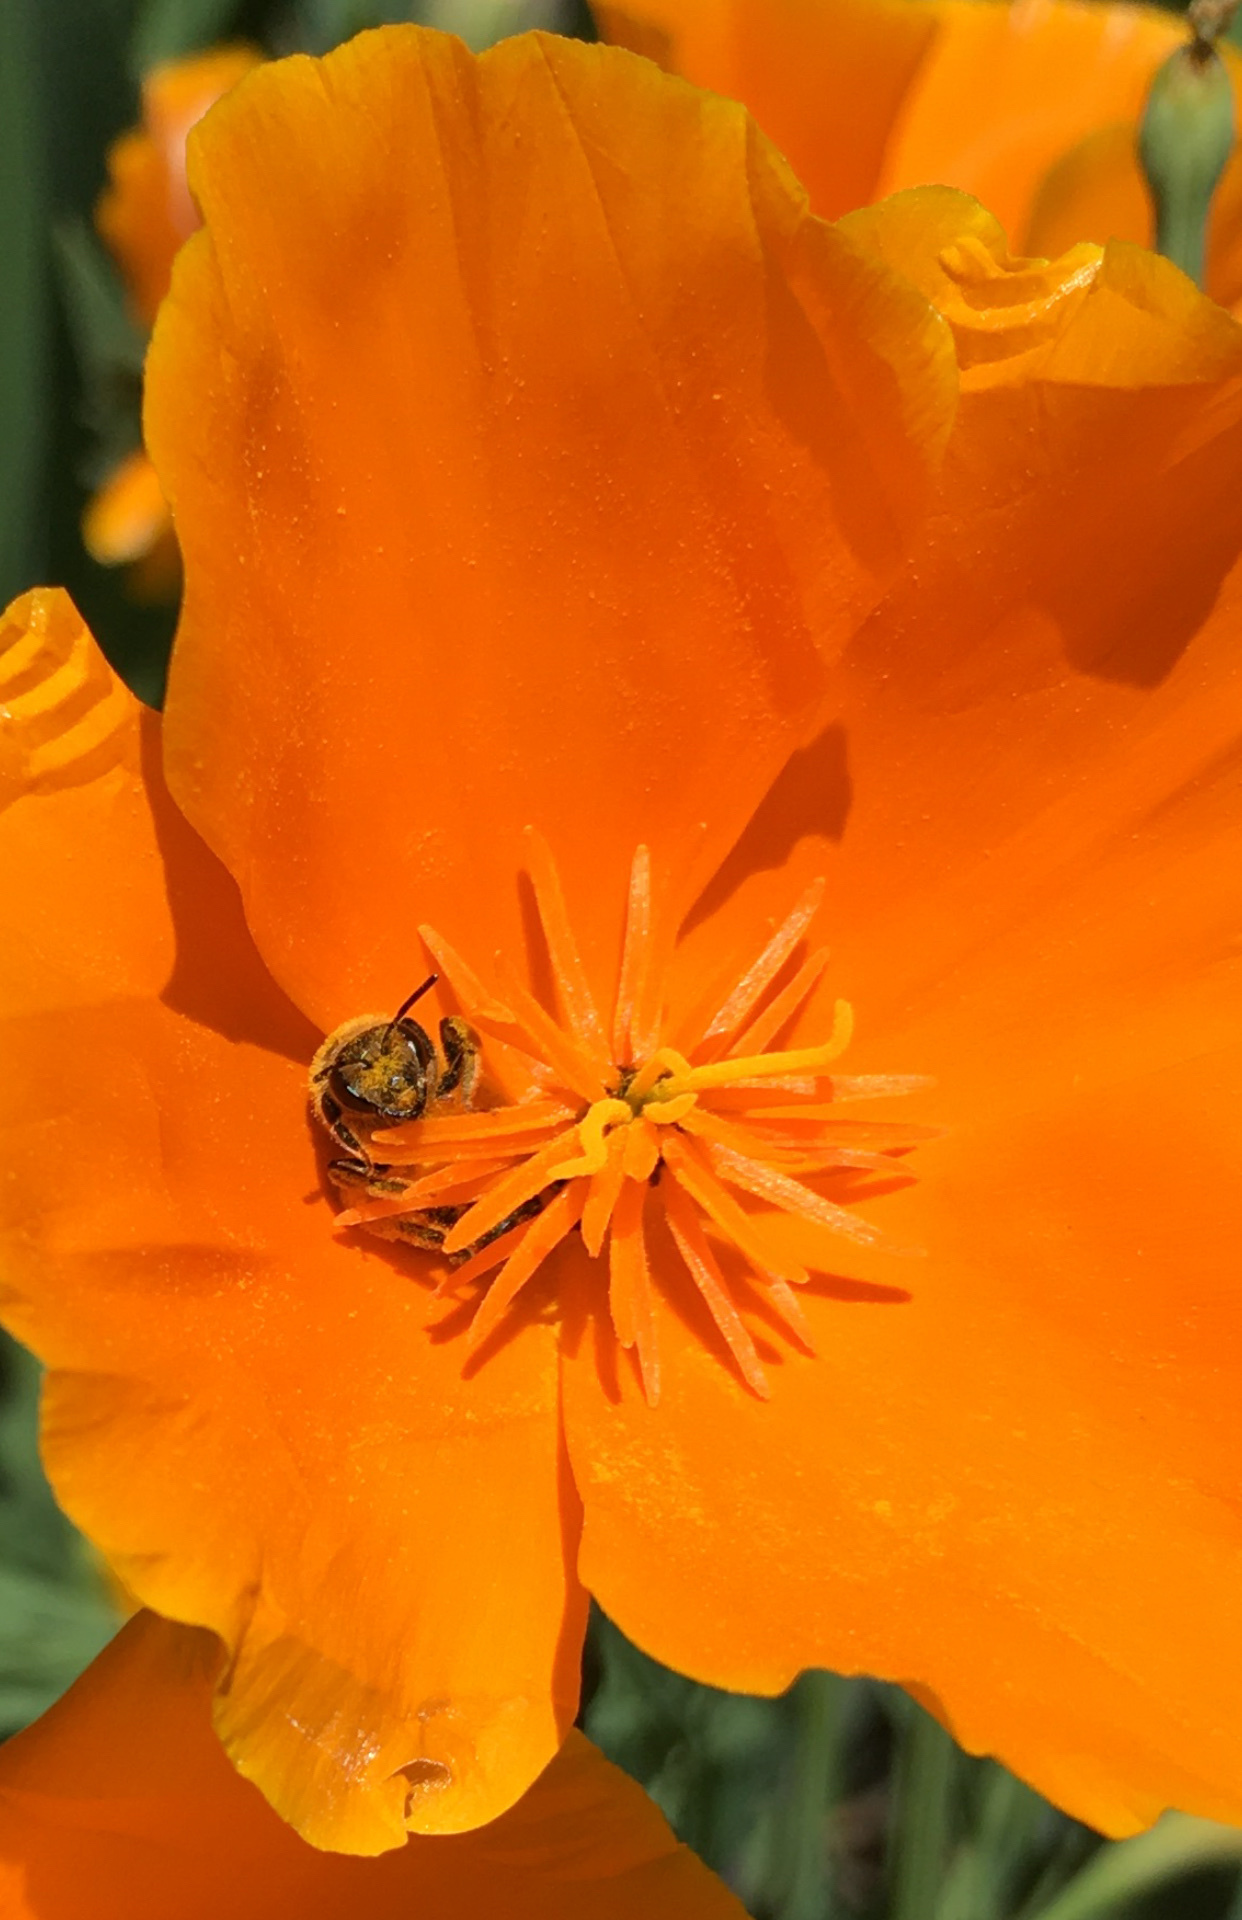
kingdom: Animalia
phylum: Arthropoda
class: Insecta
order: Hymenoptera
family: Halictidae
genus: Halictus
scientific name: Halictus farinosus
